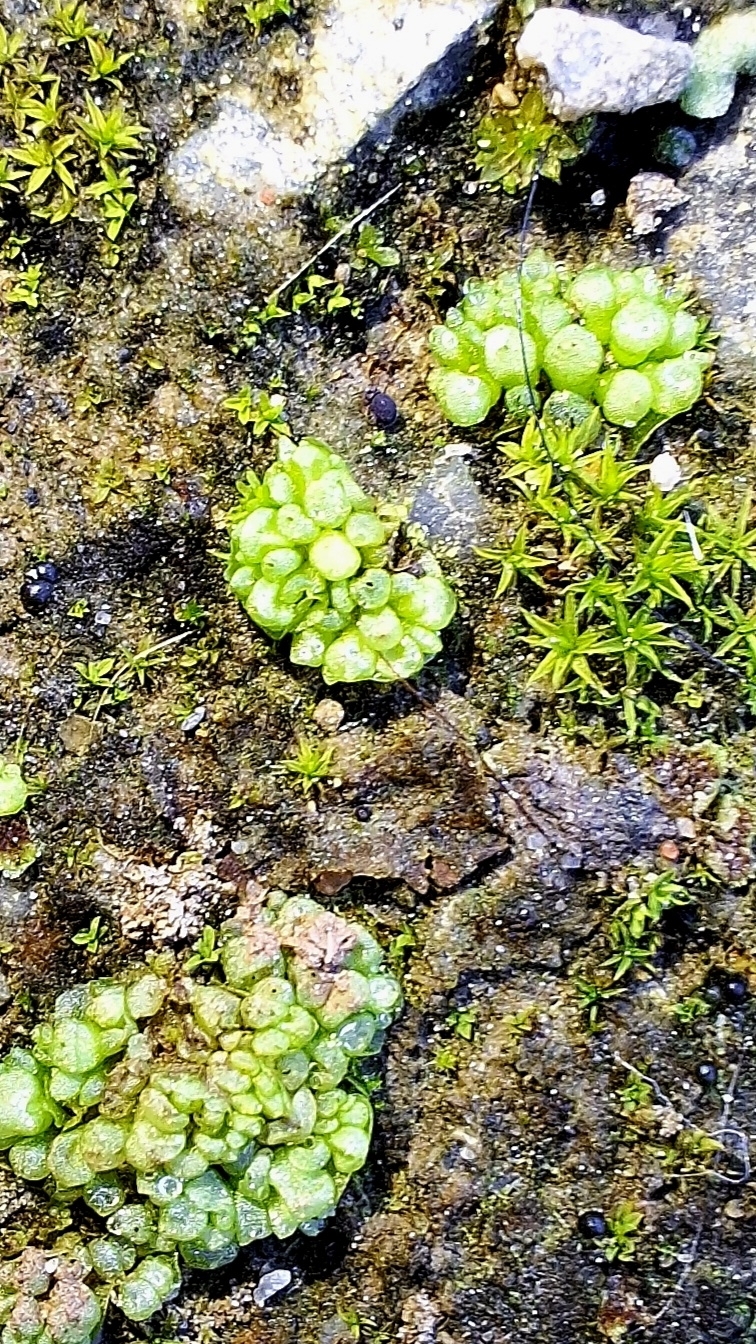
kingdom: Plantae
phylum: Marchantiophyta
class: Marchantiopsida
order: Sphaerocarpales
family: Sphaerocarpaceae
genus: Sphaerocarpos
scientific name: Sphaerocarpos texanus
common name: Texas balloonwort
